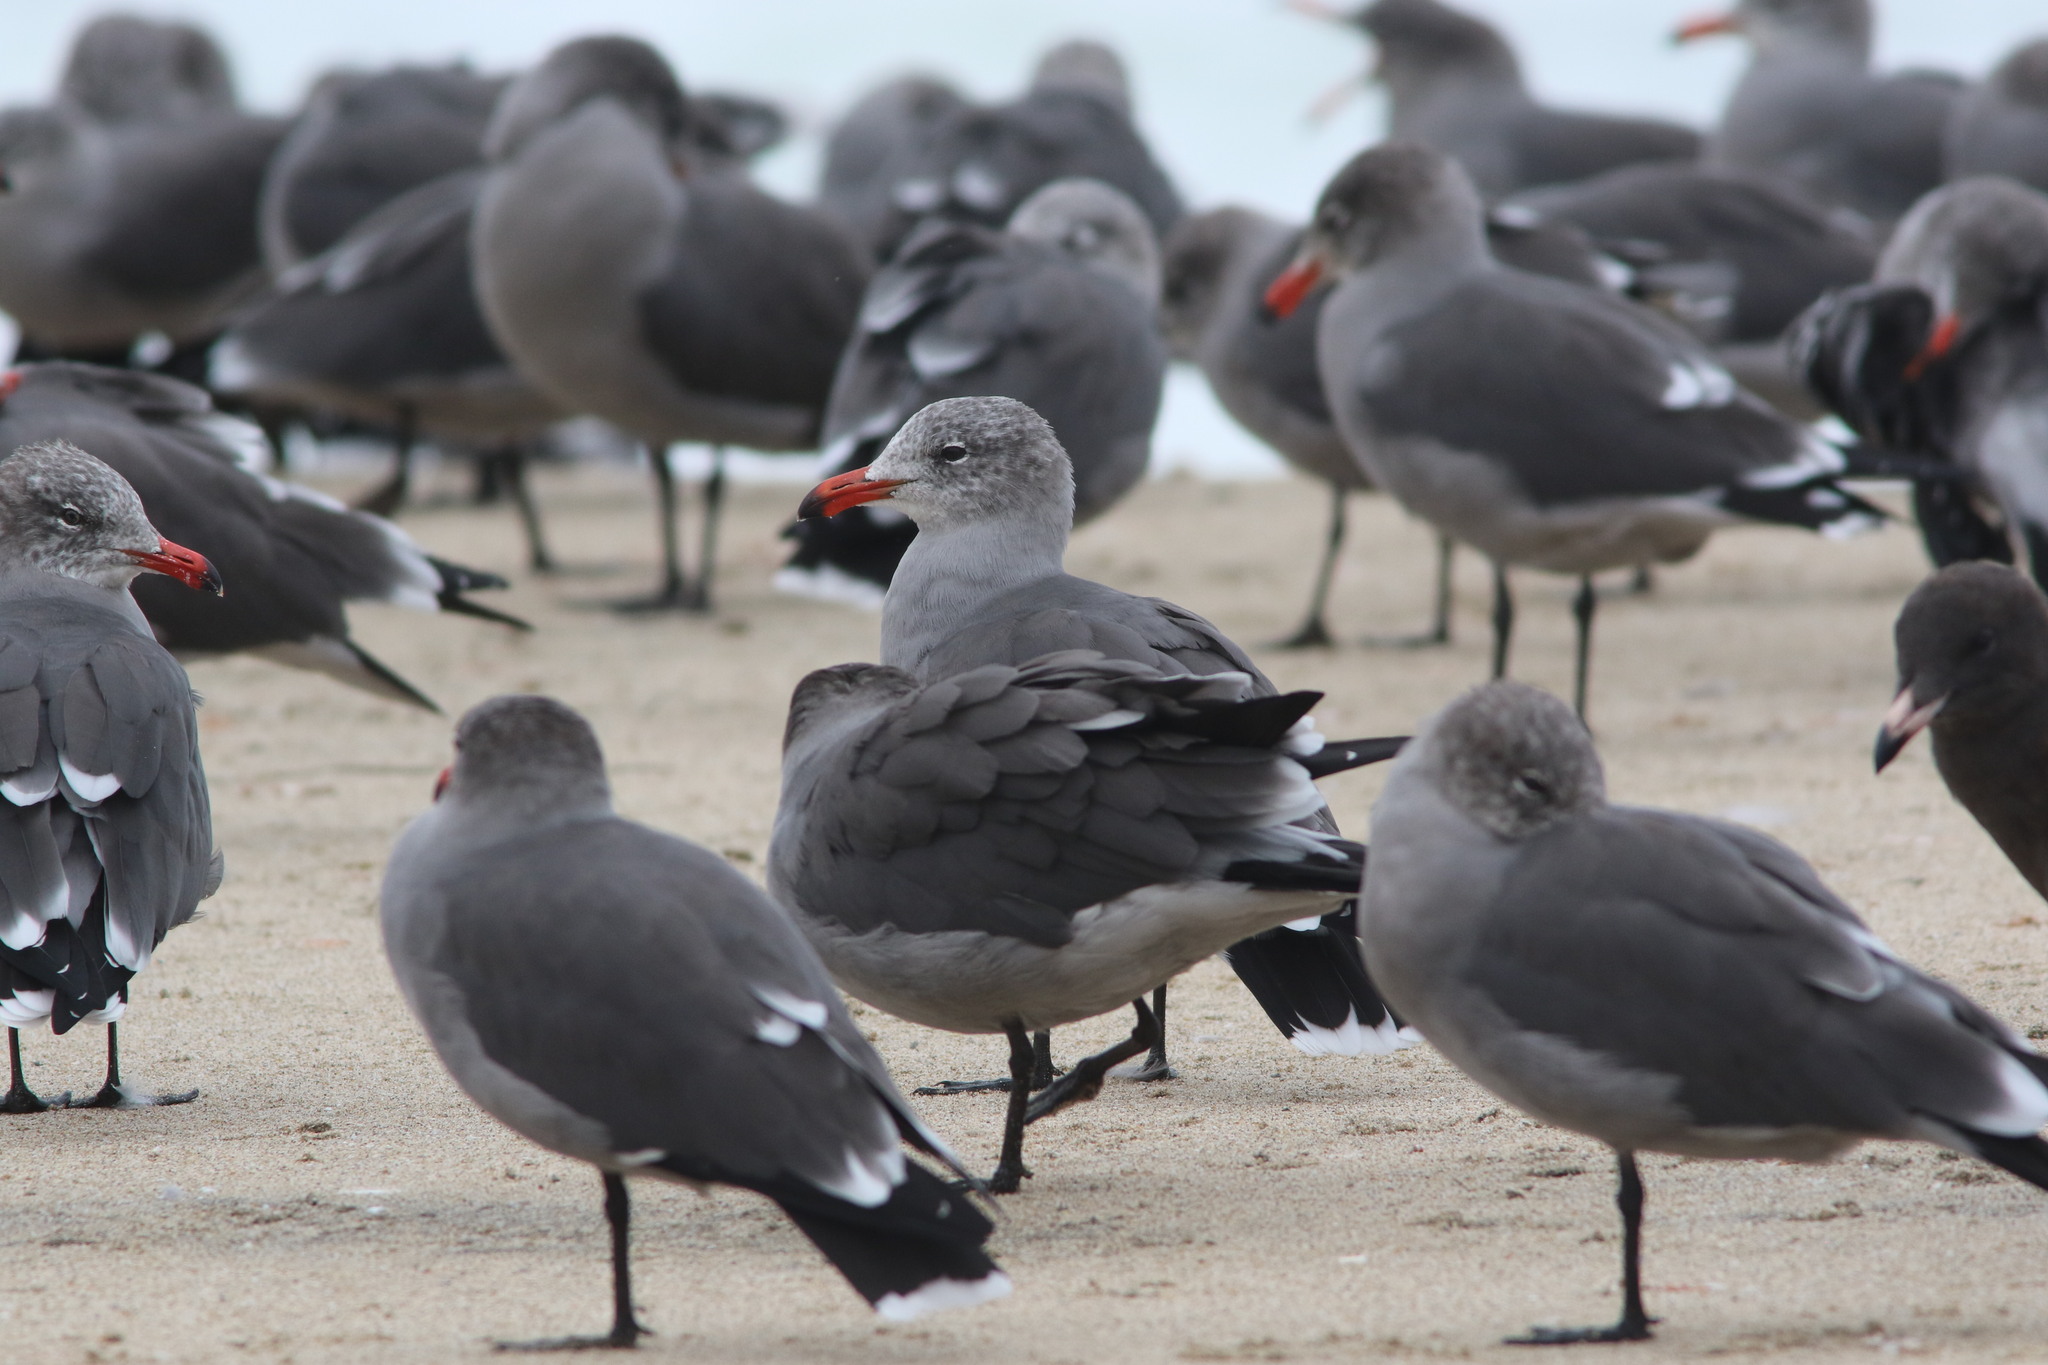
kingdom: Animalia
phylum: Chordata
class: Aves
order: Charadriiformes
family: Laridae
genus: Larus
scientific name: Larus heermanni
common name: Heermann's gull
